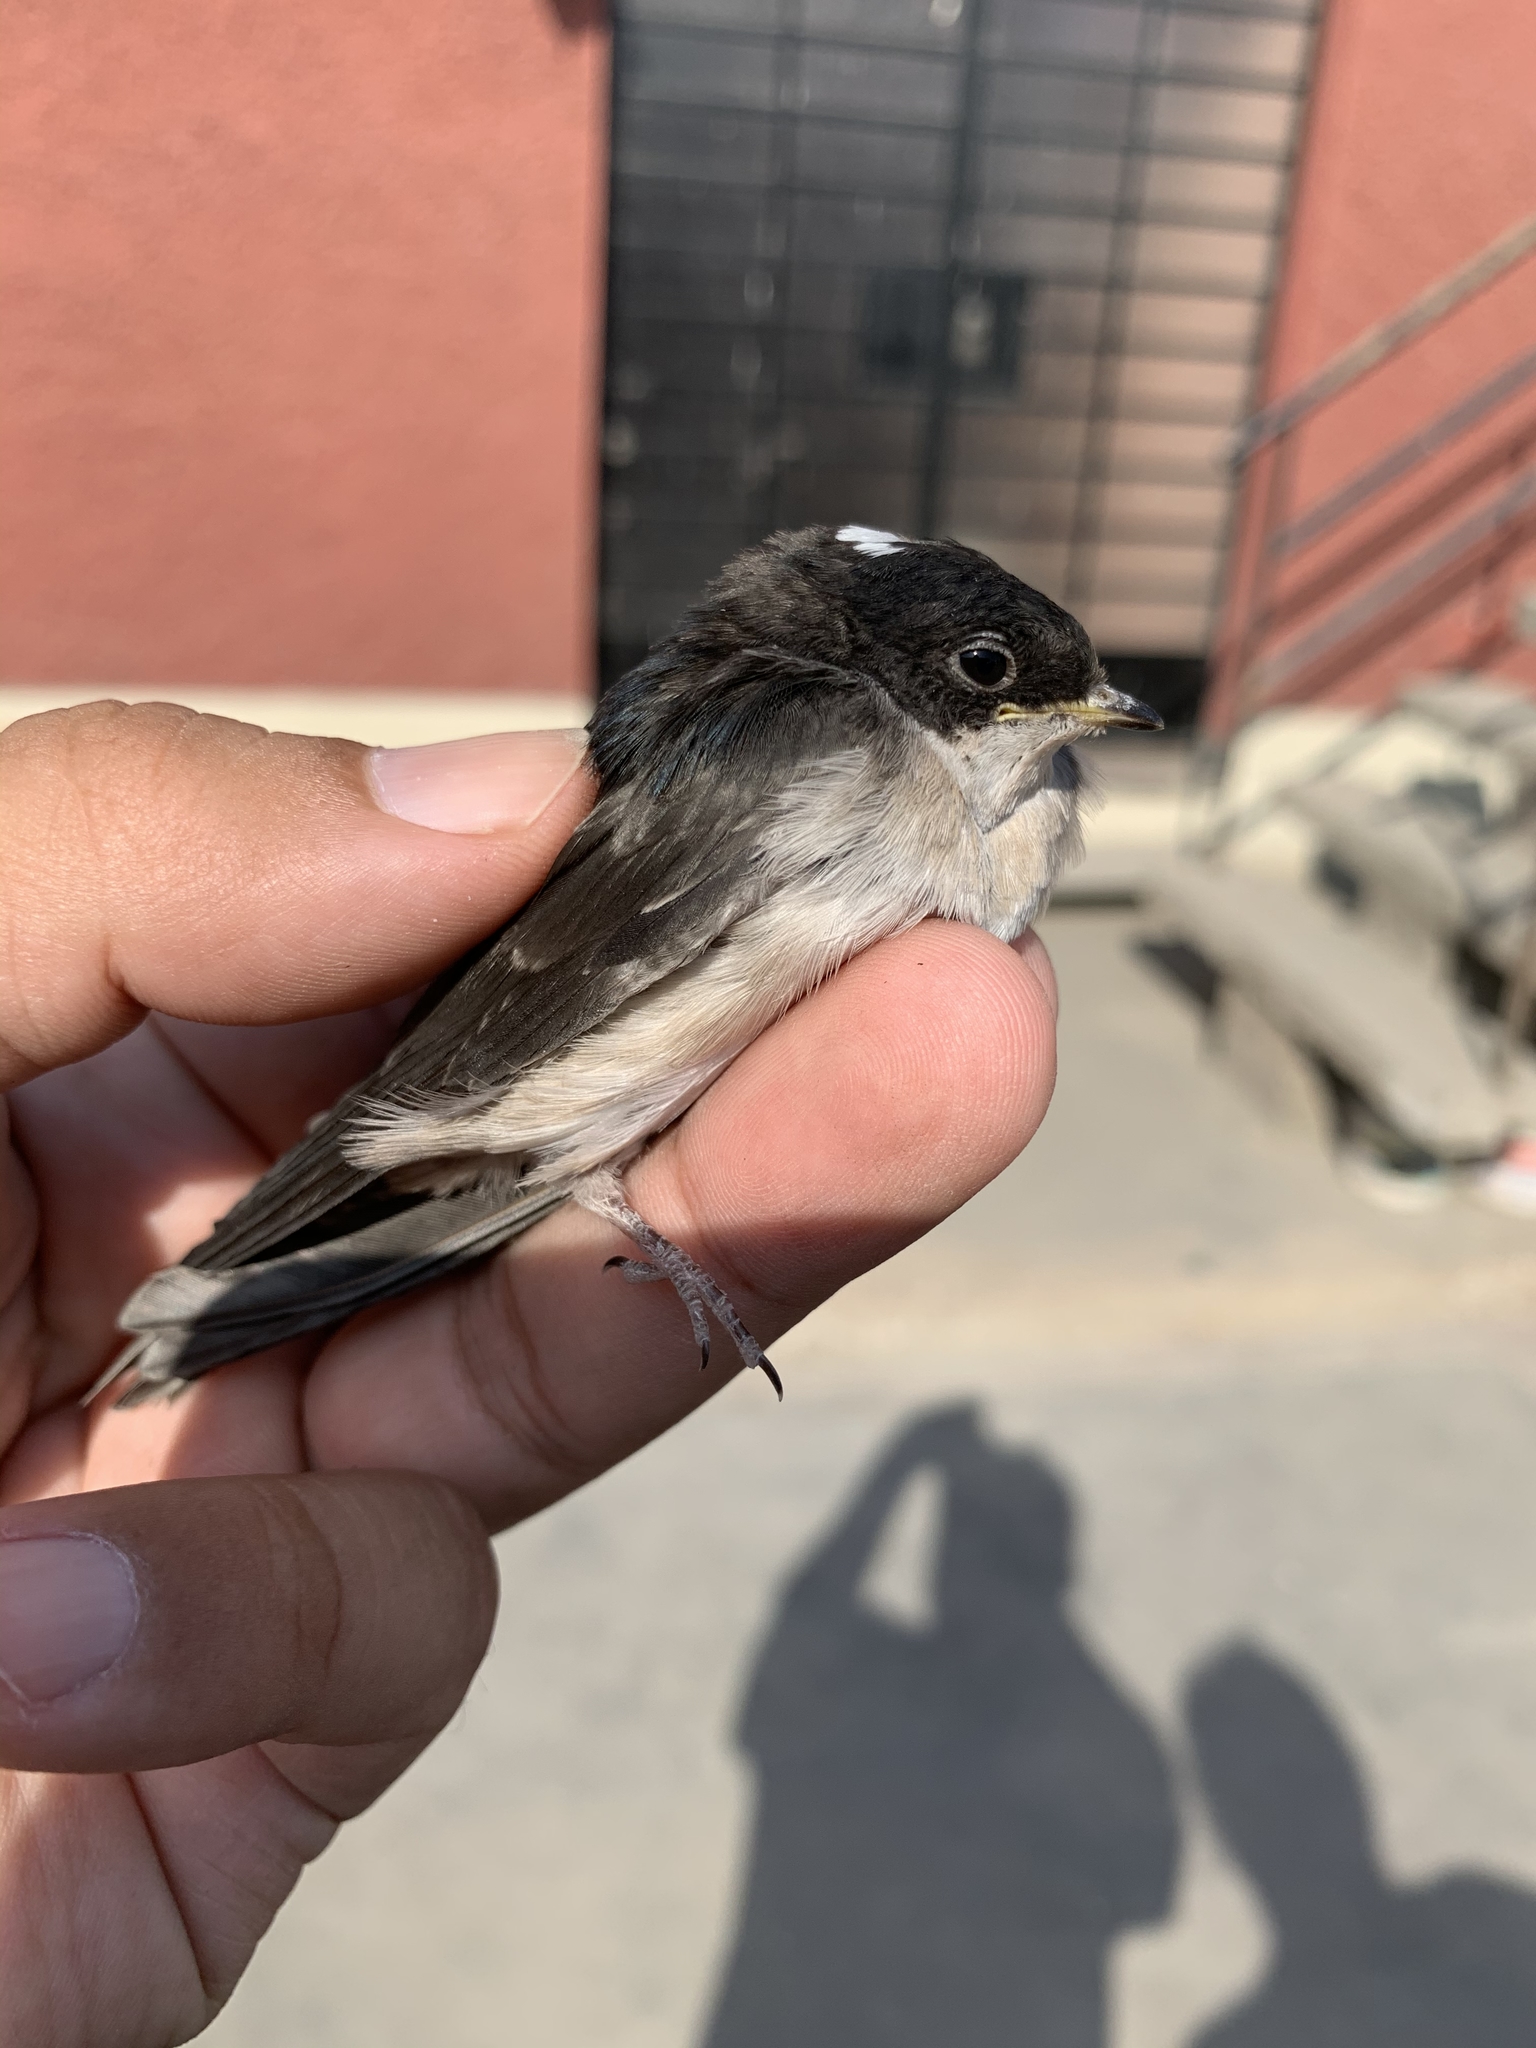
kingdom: Animalia
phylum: Chordata
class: Aves
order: Passeriformes
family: Hirundinidae
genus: Notiochelidon
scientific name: Notiochelidon cyanoleuca
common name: Blue-and-white swallow
